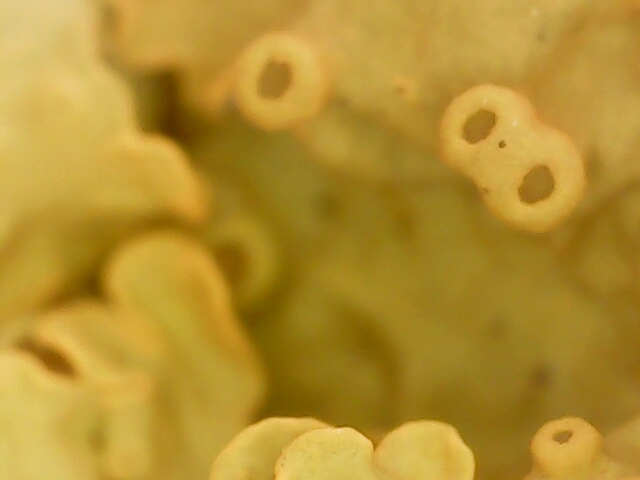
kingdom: Fungi
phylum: Ascomycota
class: Lecanoromycetes
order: Teloschistales
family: Teloschistaceae
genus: Xanthoria
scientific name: Xanthoria parietina
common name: Common orange lichen
